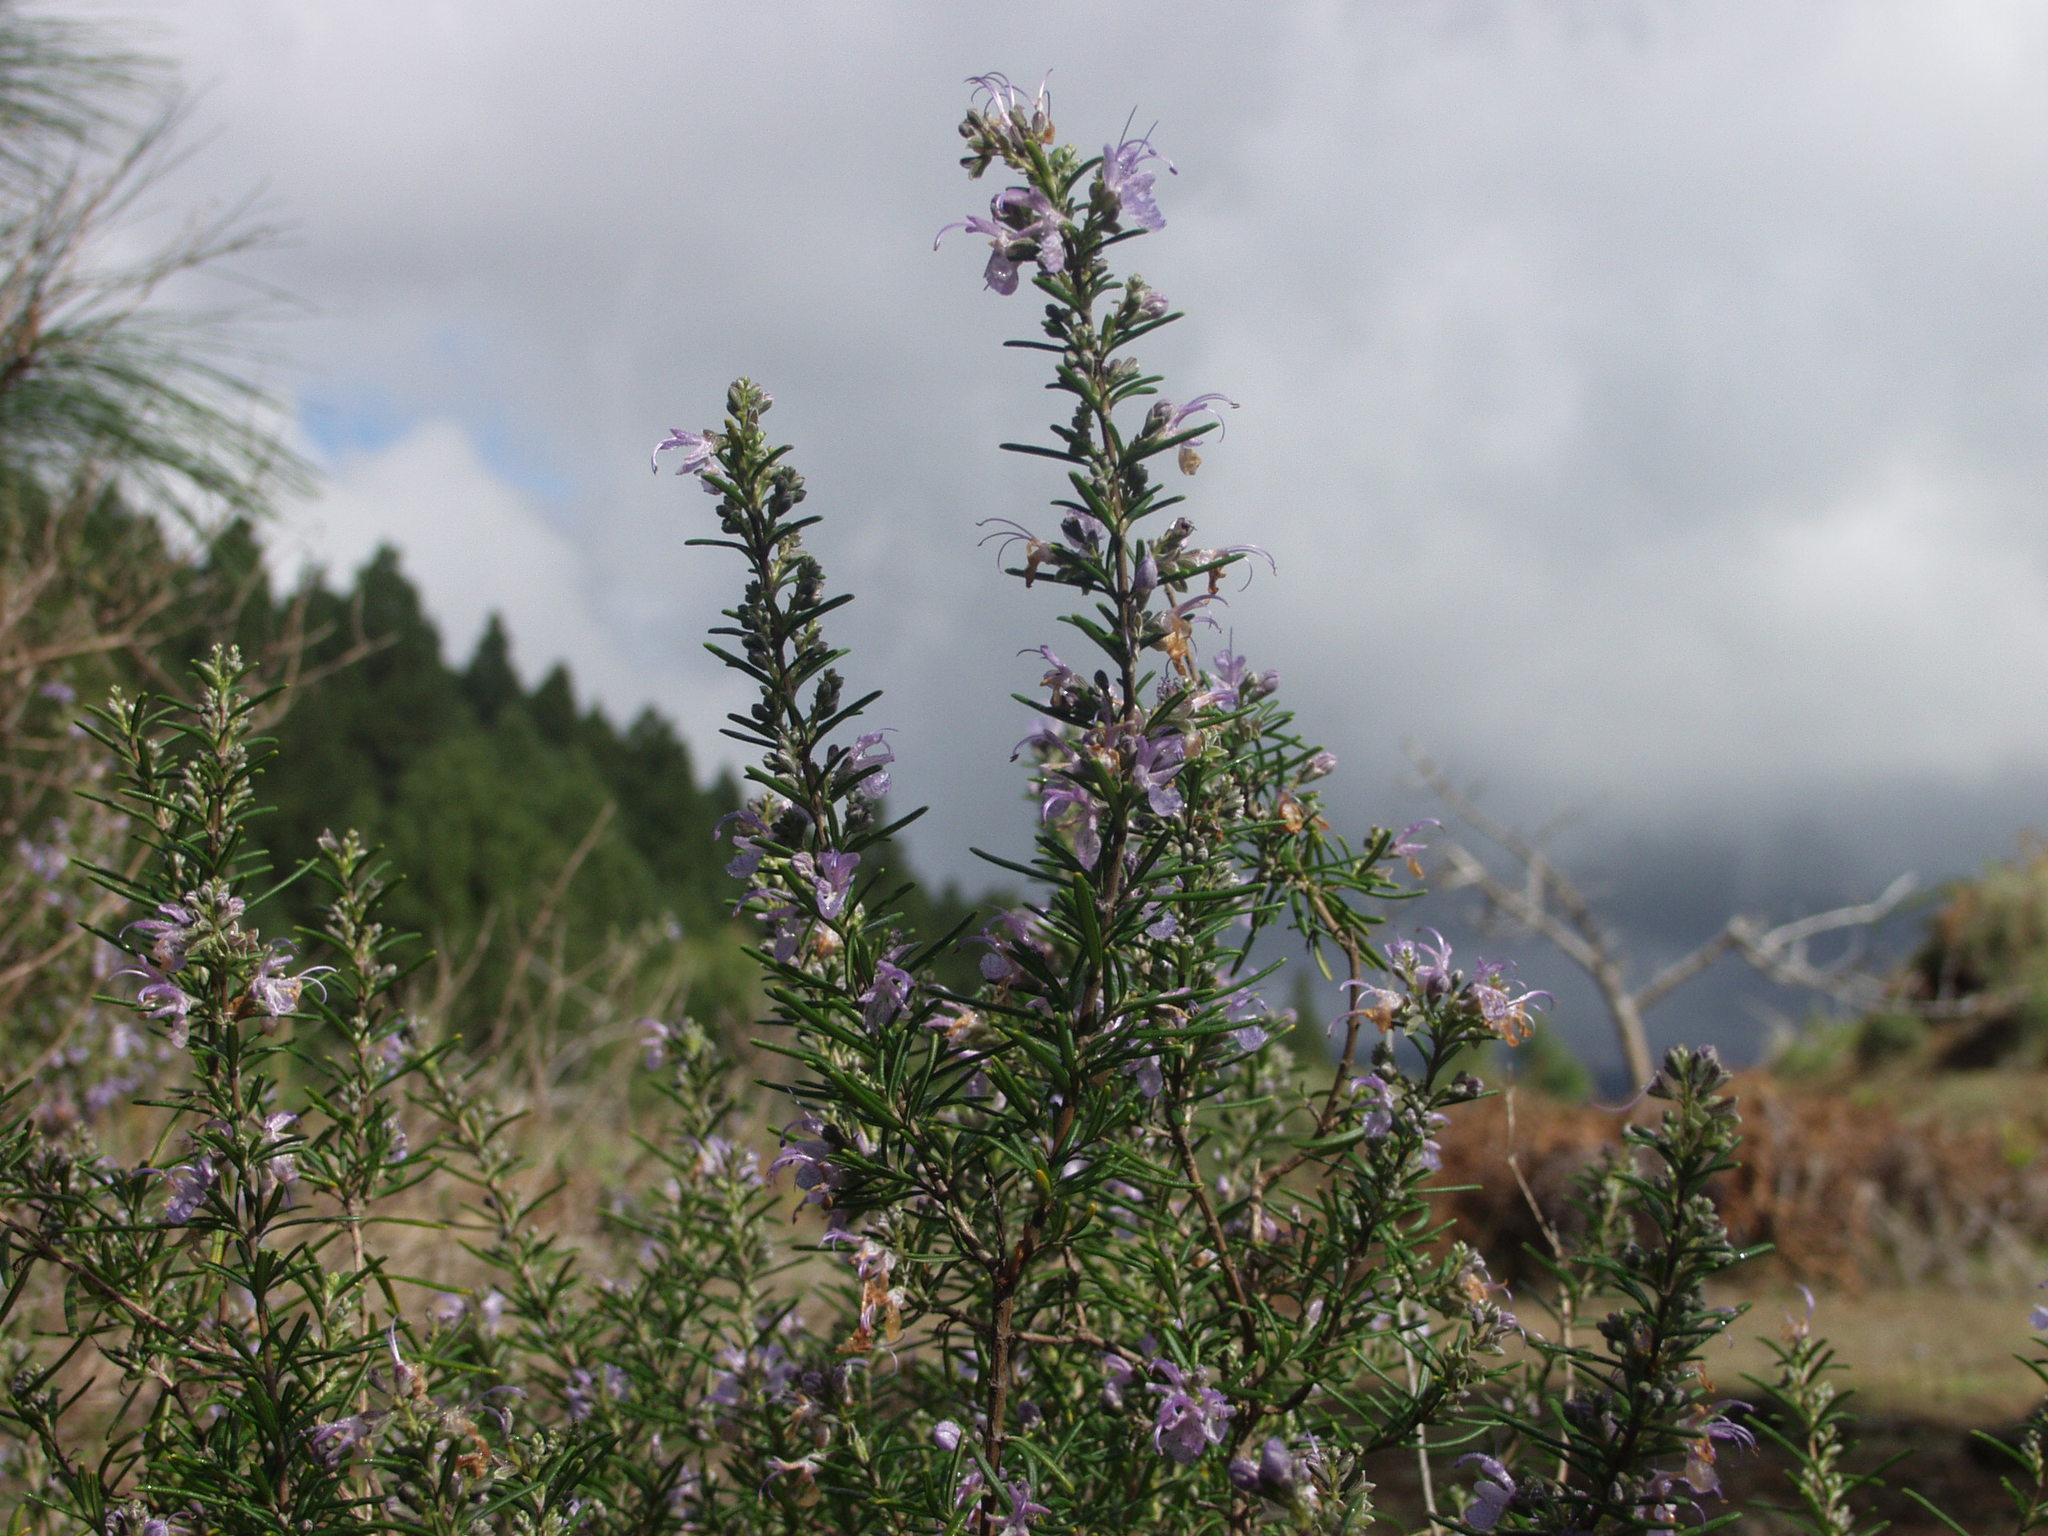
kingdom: Plantae
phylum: Tracheophyta
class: Magnoliopsida
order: Lamiales
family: Lamiaceae
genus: Salvia
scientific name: Salvia rosmarinus
